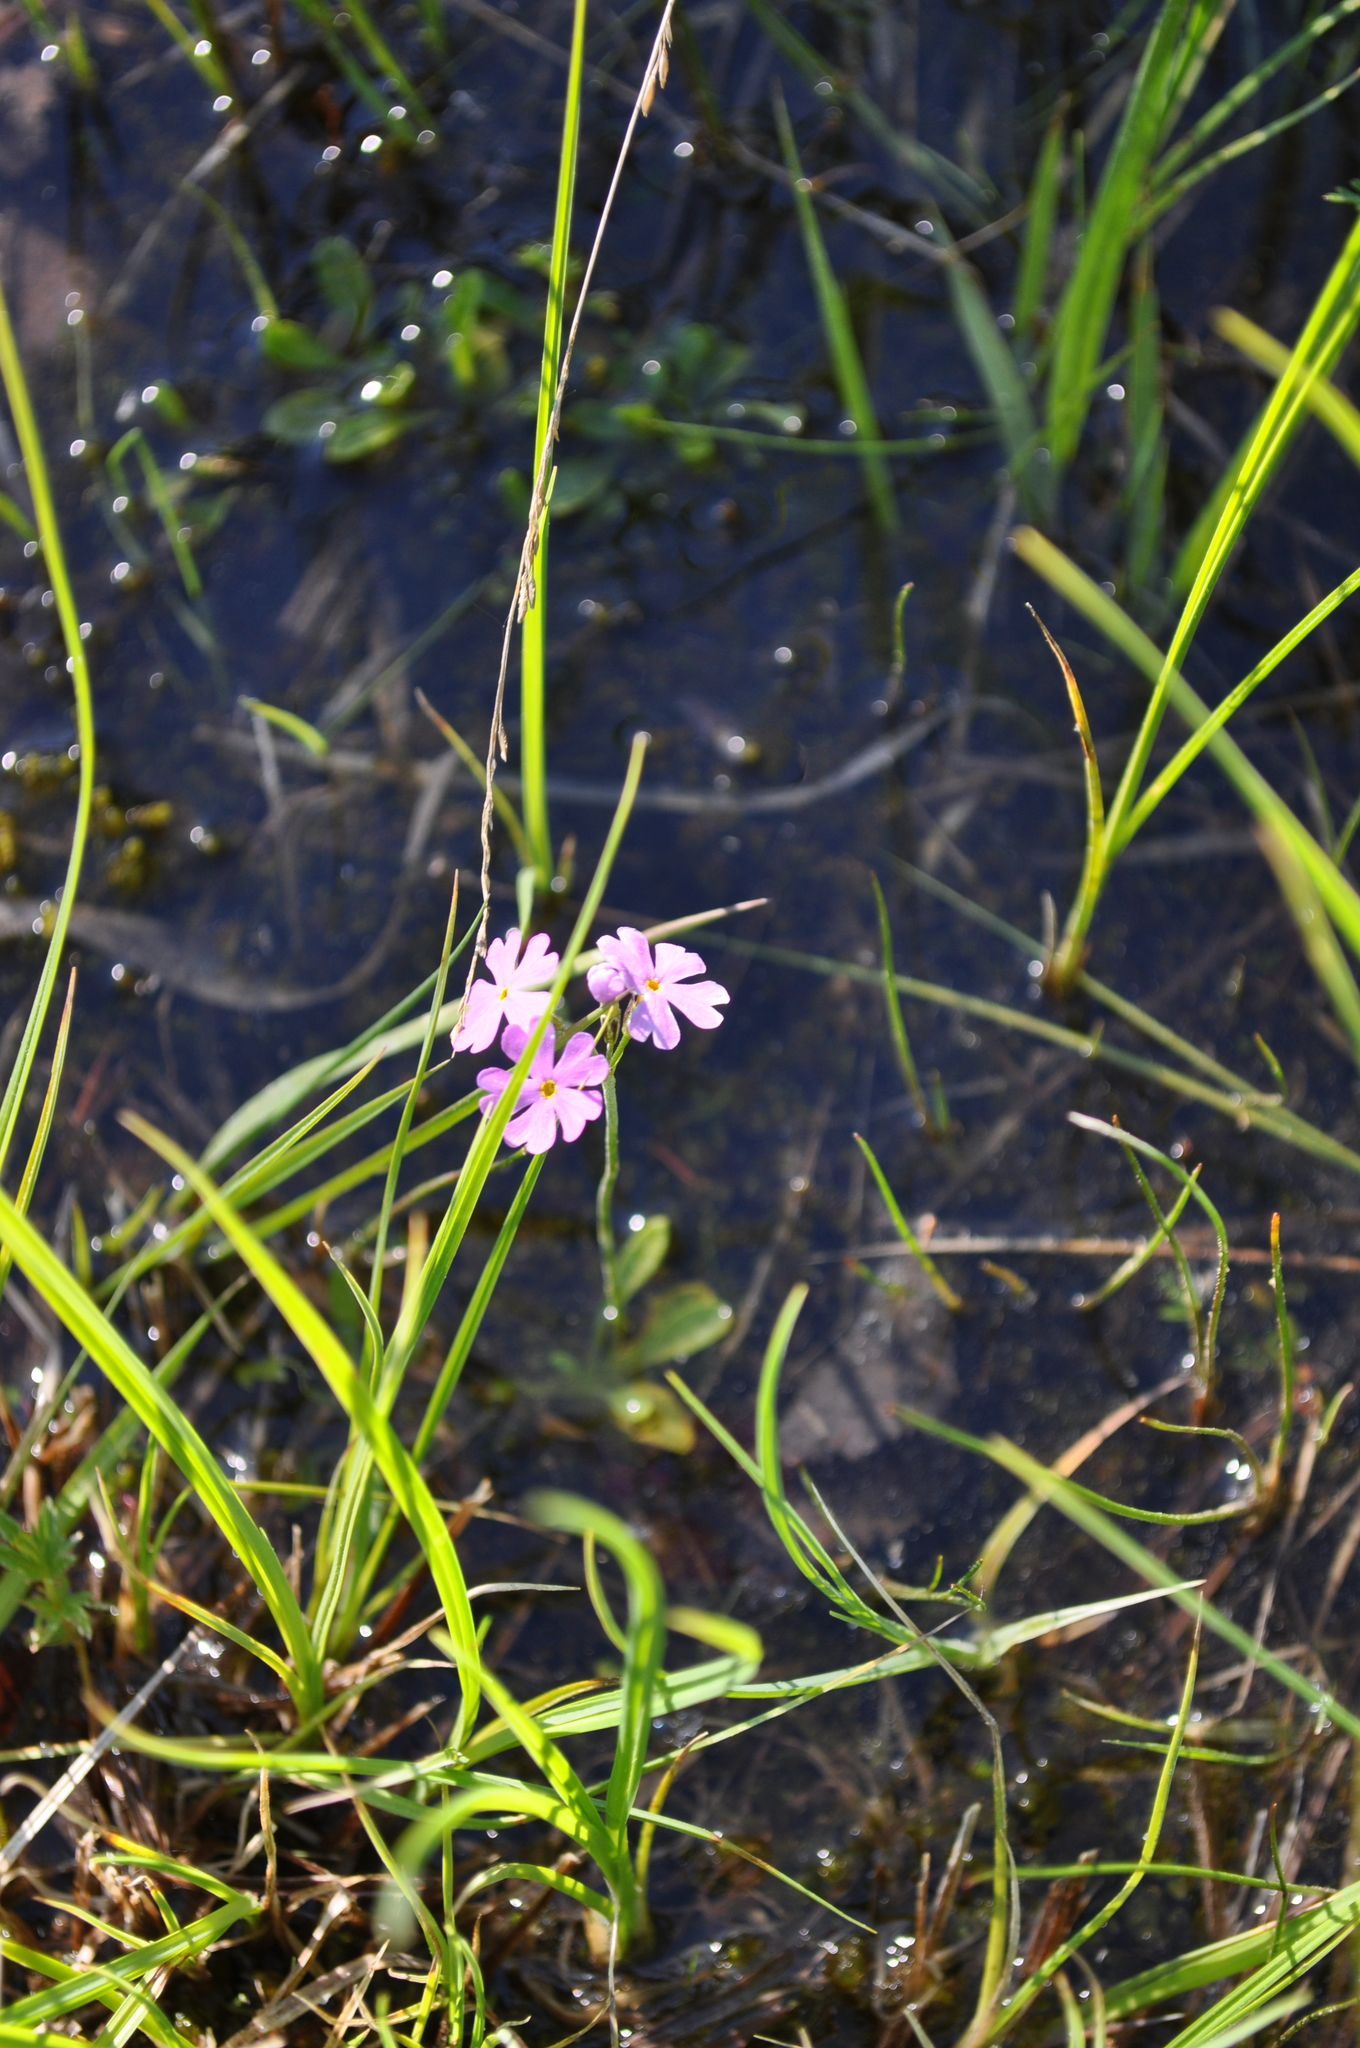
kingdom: Plantae
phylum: Tracheophyta
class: Magnoliopsida
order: Ericales
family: Primulaceae
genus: Primula
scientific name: Primula farinosa
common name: Bird's-eye primrose
